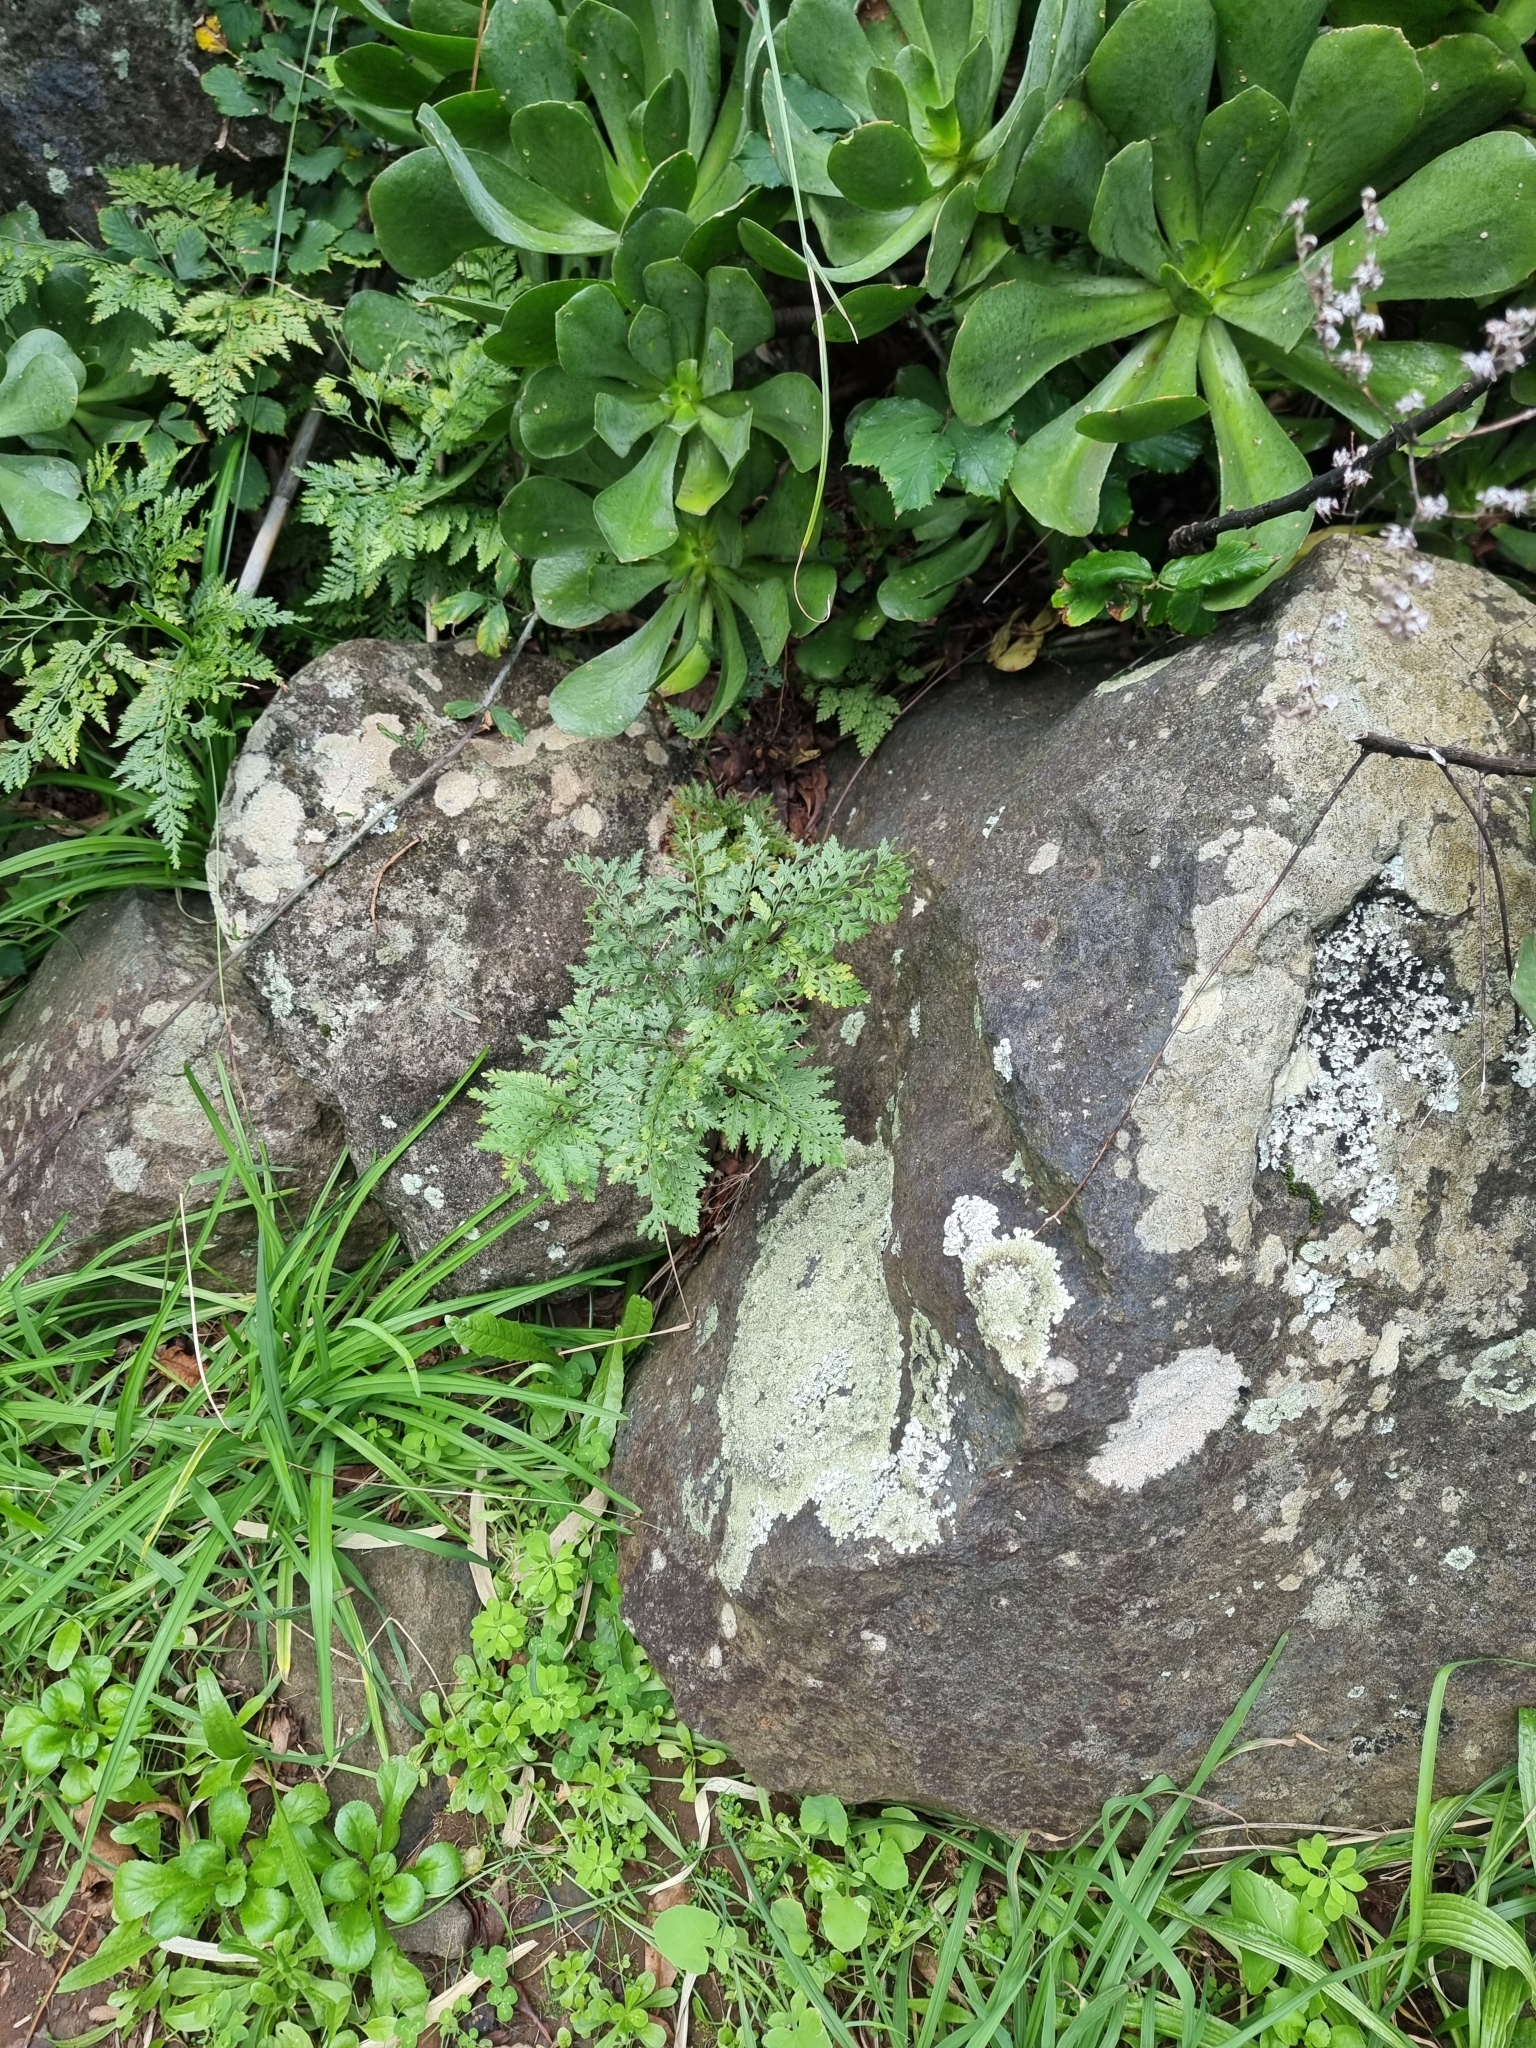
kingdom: Plantae
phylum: Tracheophyta
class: Polypodiopsida
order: Polypodiales
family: Davalliaceae
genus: Davallia
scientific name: Davallia canariensis
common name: Hare's-foot fern
